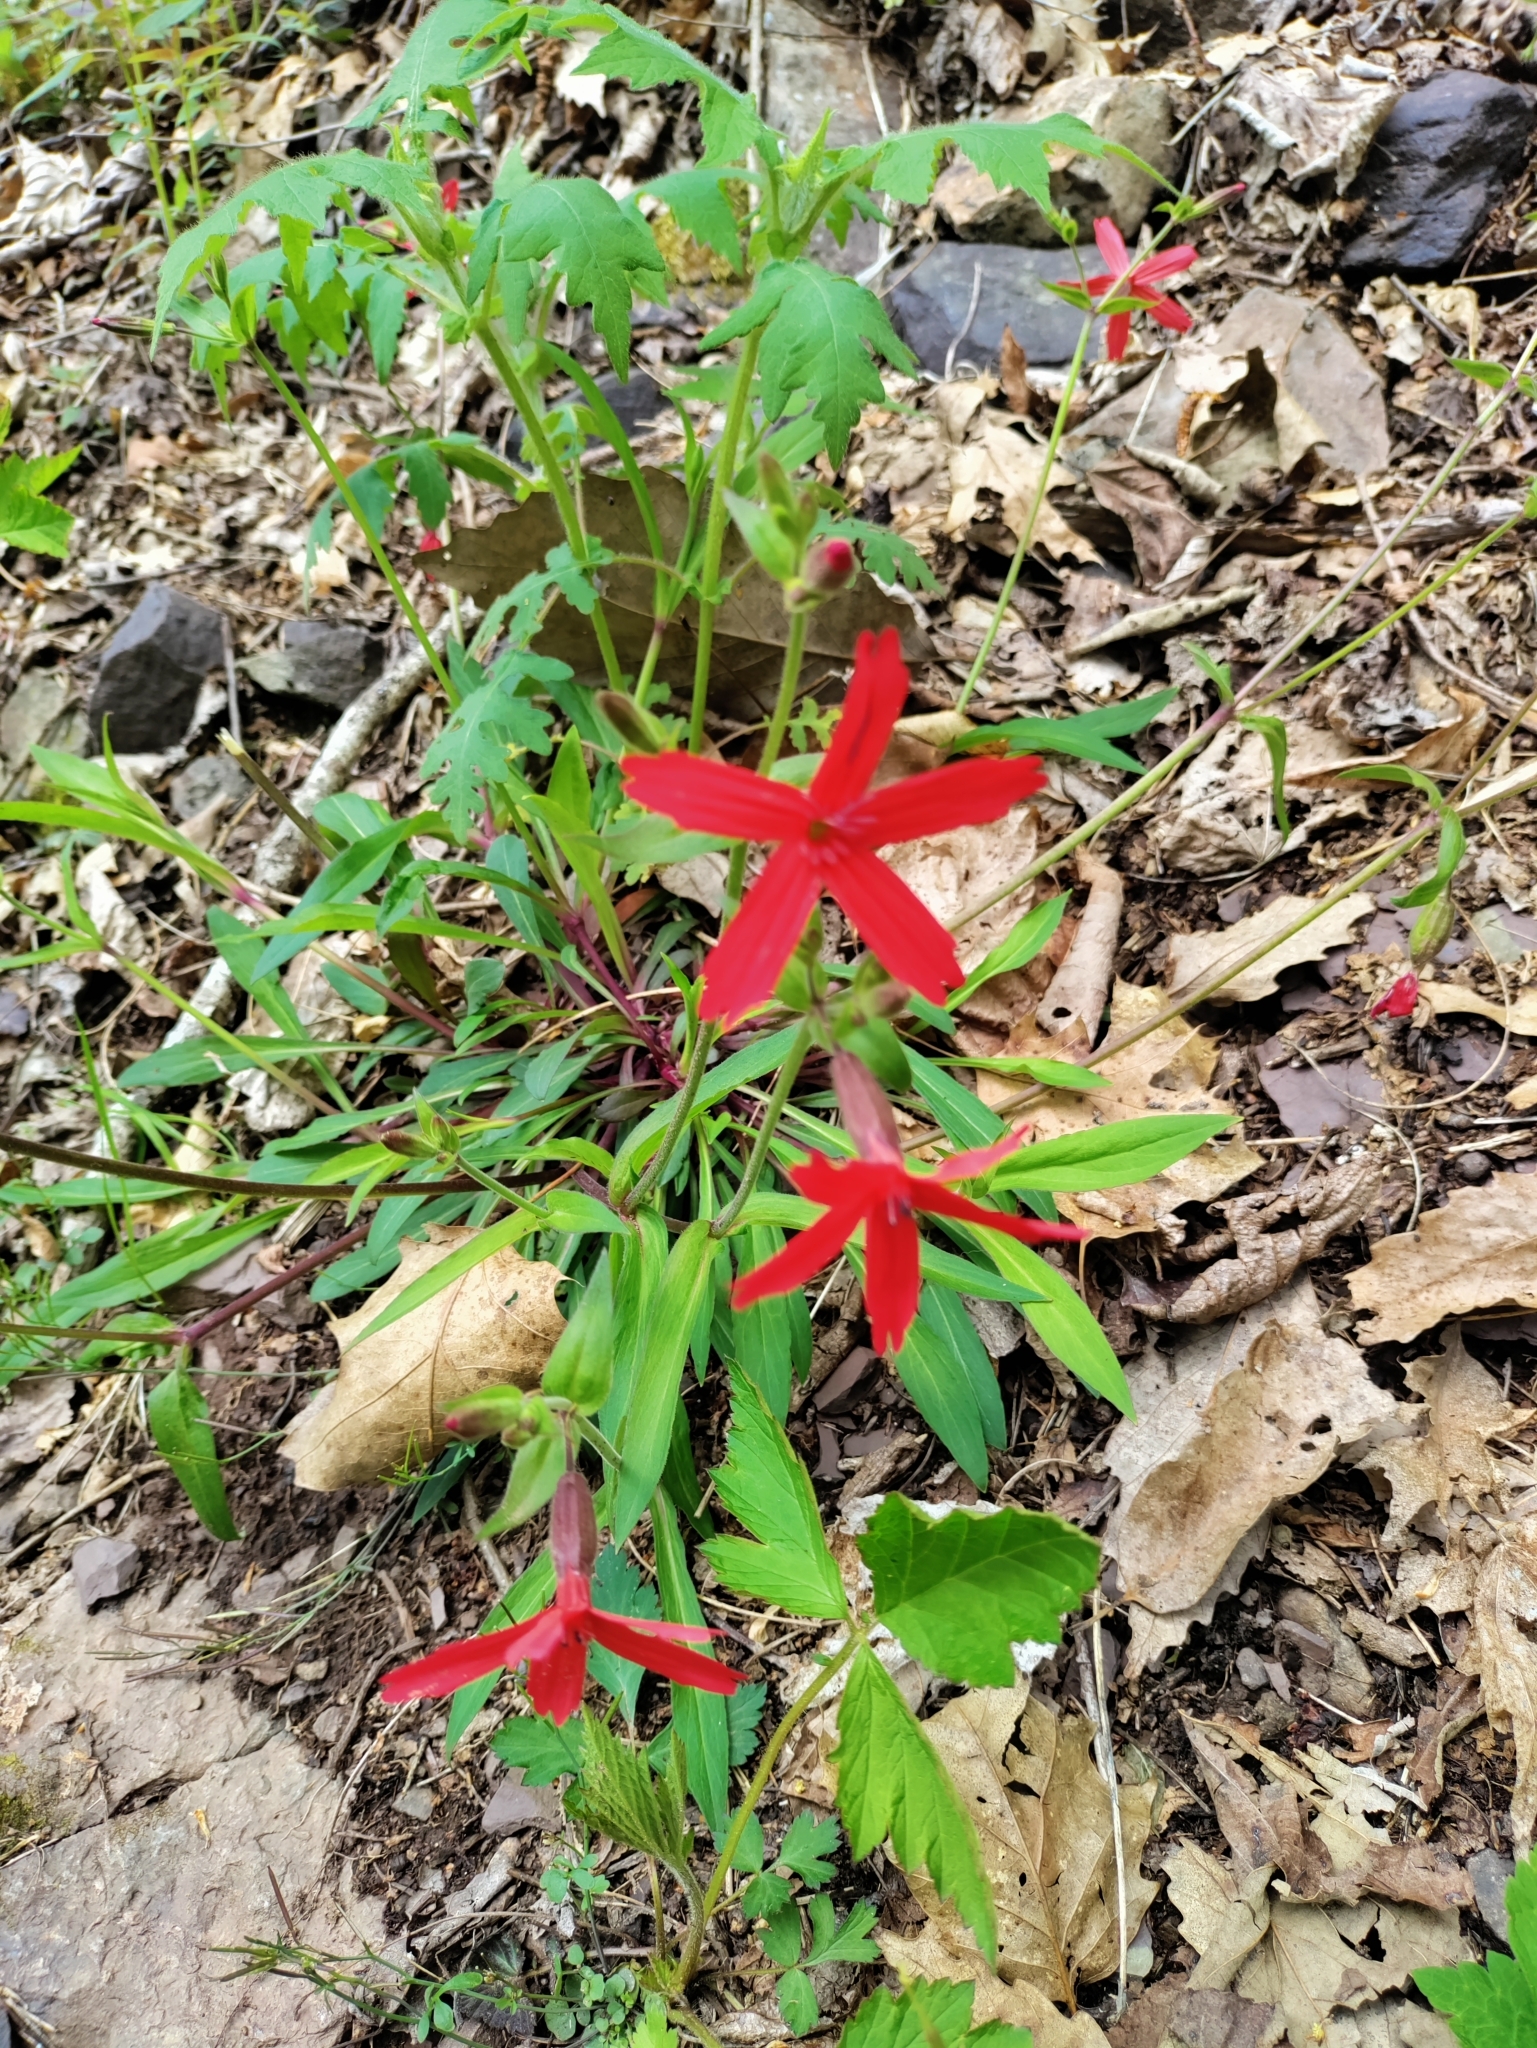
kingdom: Plantae
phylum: Tracheophyta
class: Magnoliopsida
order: Caryophyllales
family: Caryophyllaceae
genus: Silene
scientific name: Silene virginica
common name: Fire-pink
